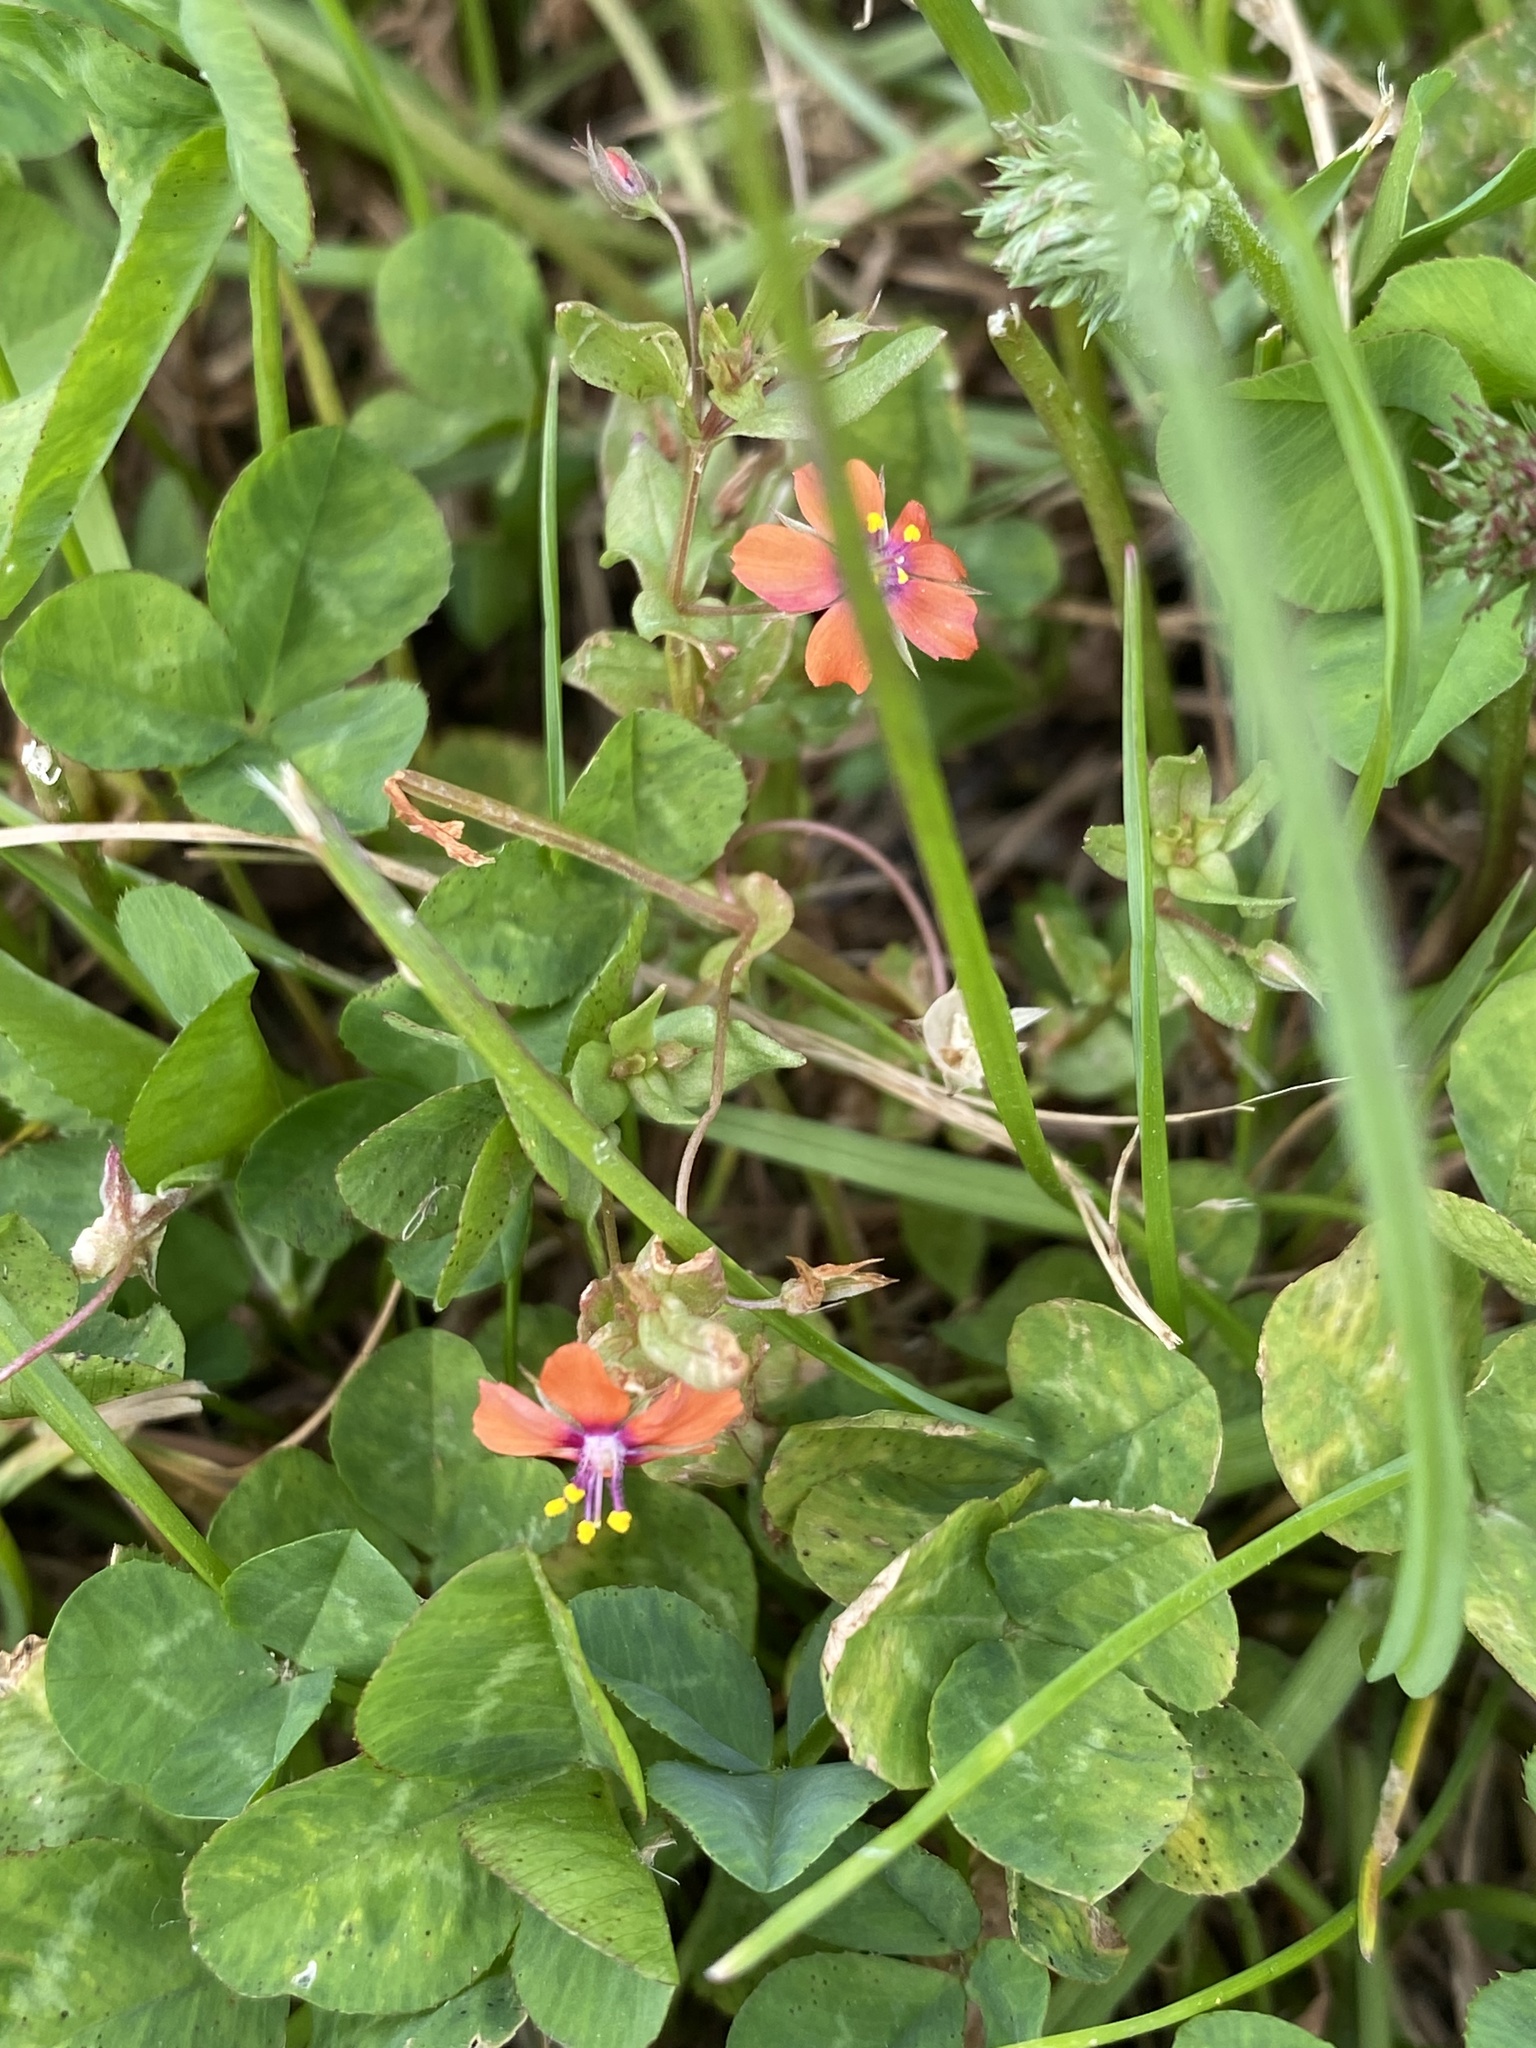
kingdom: Plantae
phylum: Tracheophyta
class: Magnoliopsida
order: Ericales
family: Primulaceae
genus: Lysimachia
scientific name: Lysimachia arvensis
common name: Scarlet pimpernel
